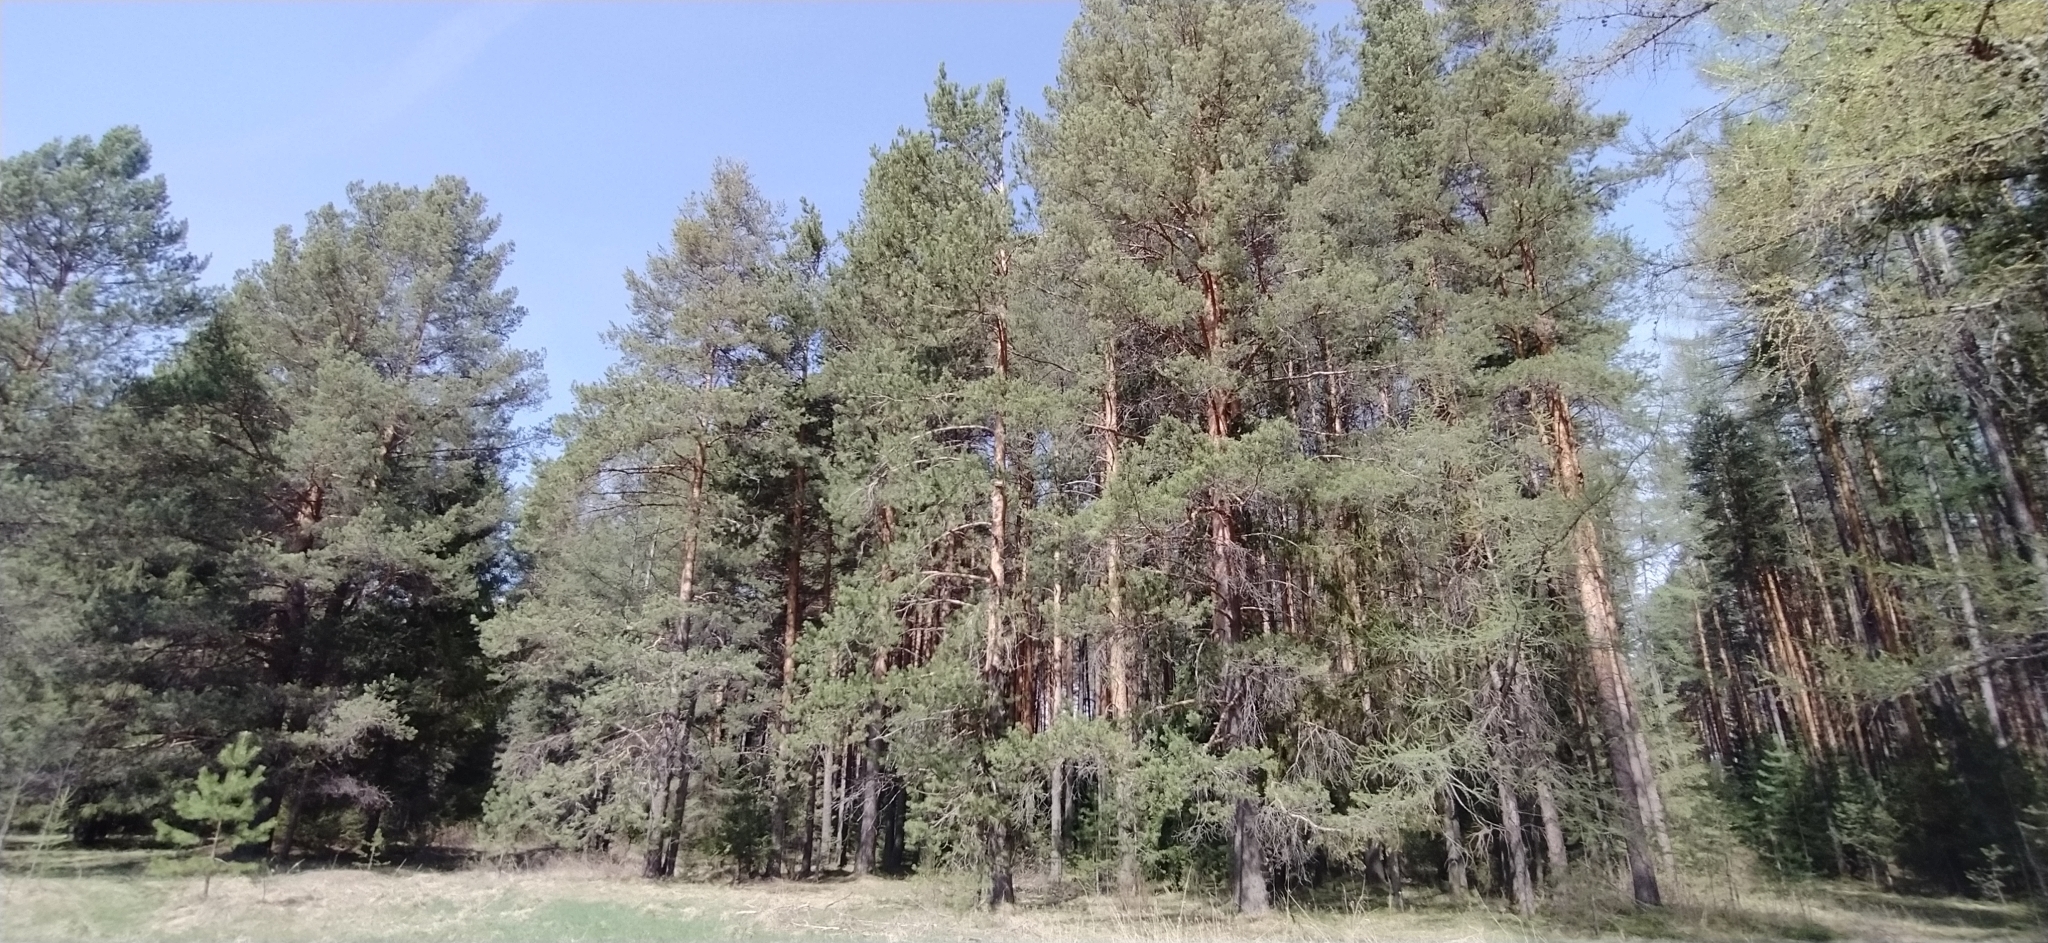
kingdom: Plantae
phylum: Tracheophyta
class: Pinopsida
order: Pinales
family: Pinaceae
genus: Pinus
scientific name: Pinus sylvestris
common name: Scots pine
